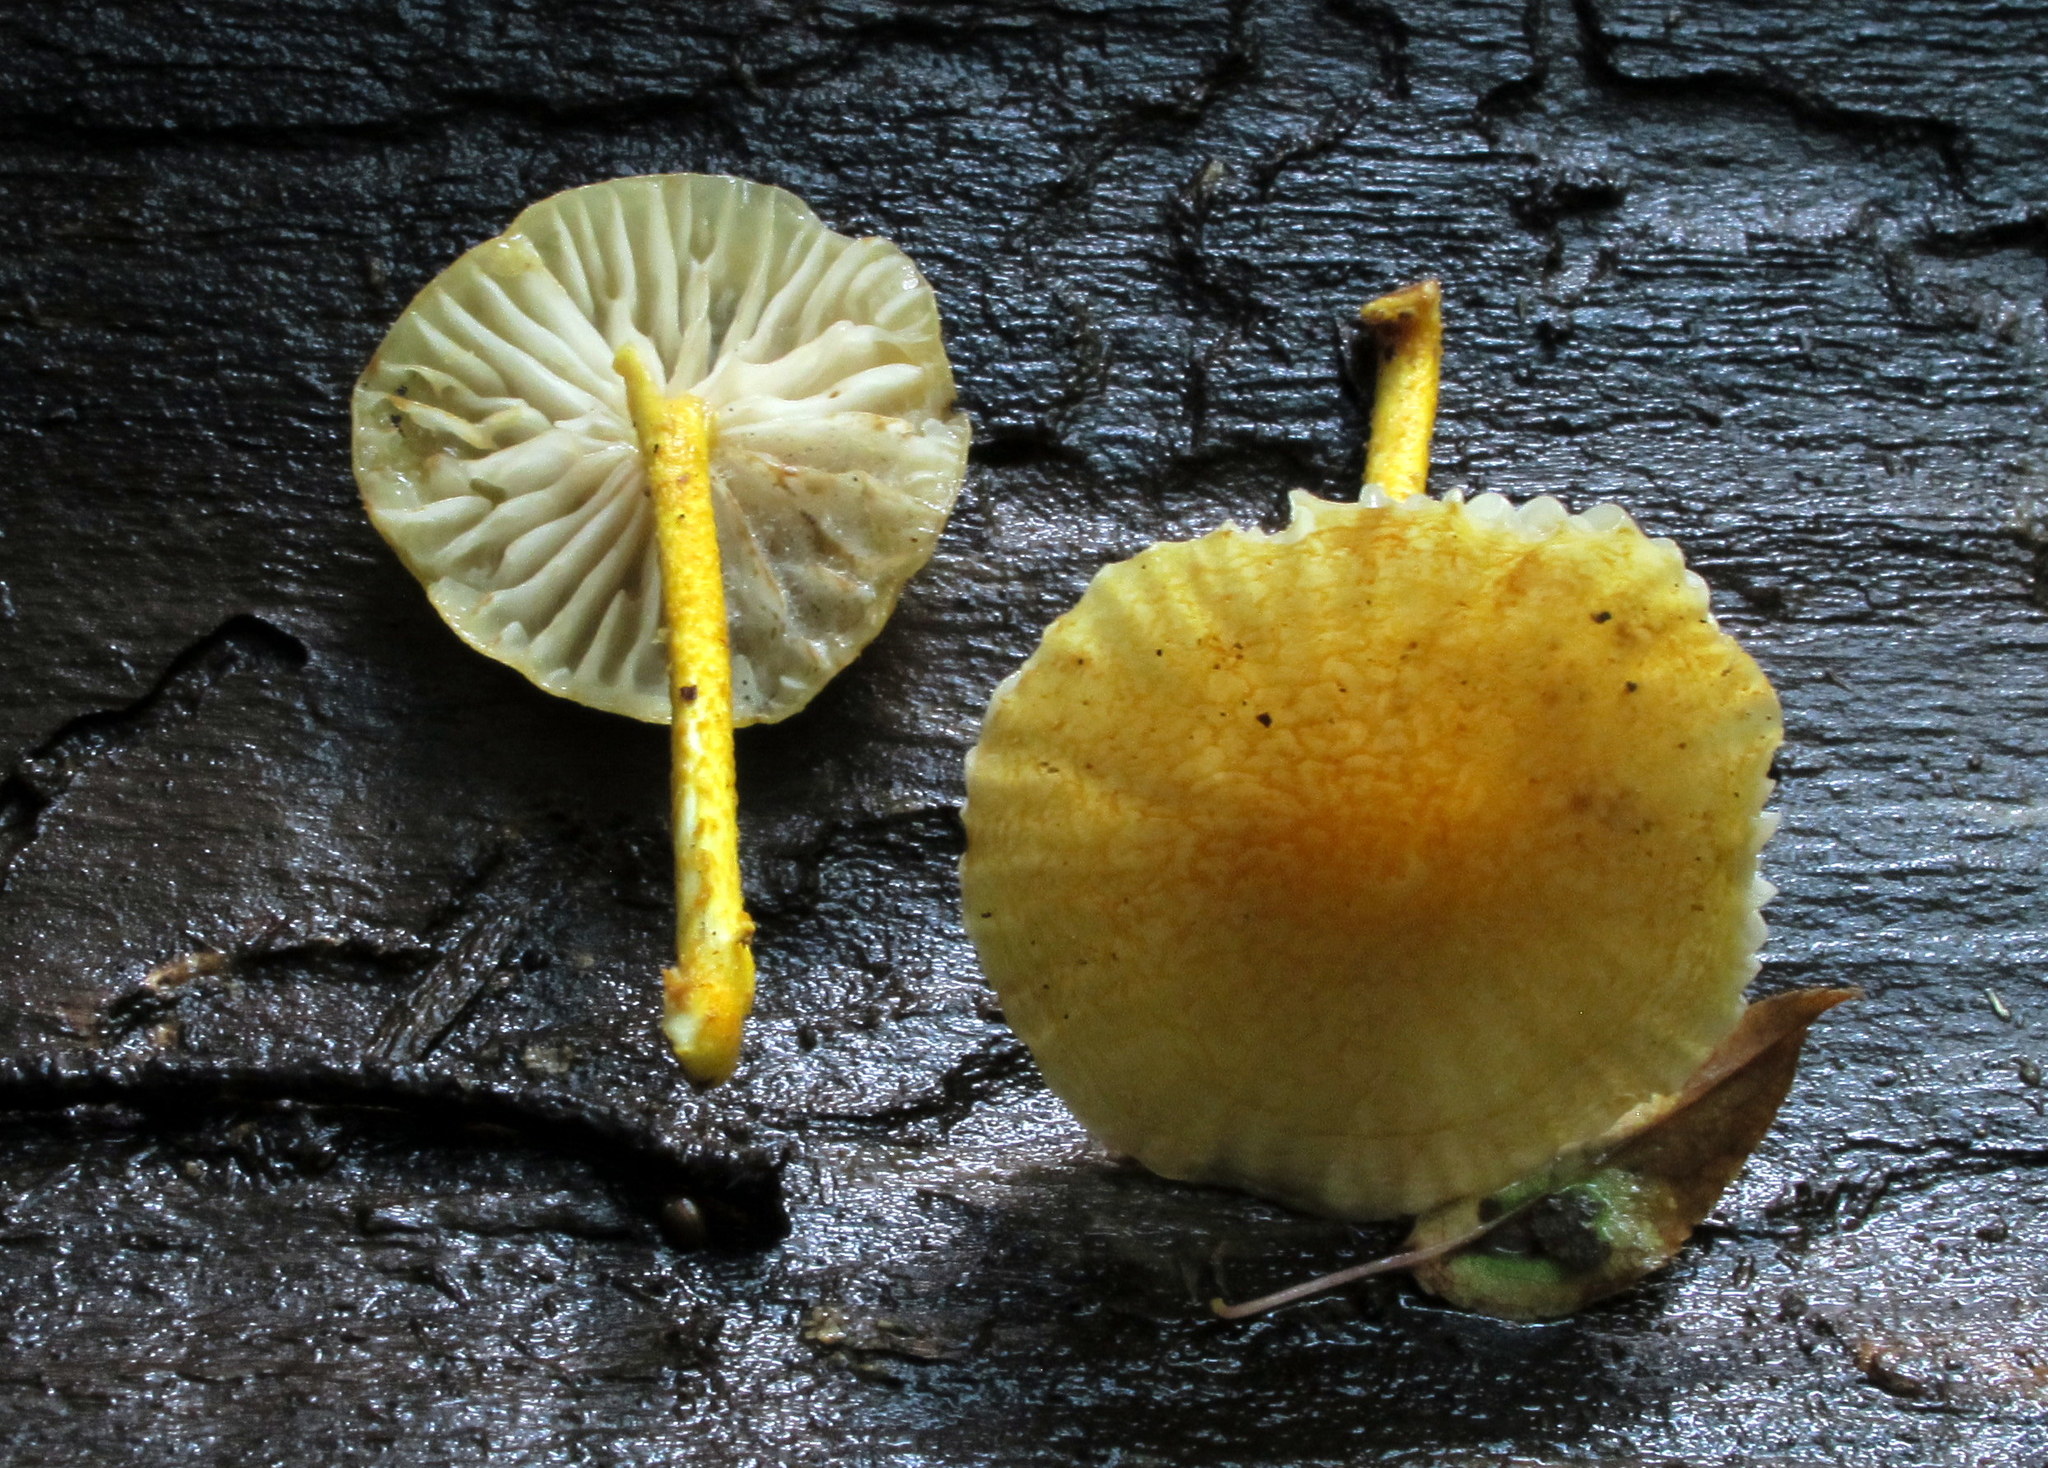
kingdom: Fungi
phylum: Basidiomycota
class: Agaricomycetes
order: Agaricales
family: Physalacriaceae
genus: Cyptotrama
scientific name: Cyptotrama chrysopepla
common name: Golden coincap
